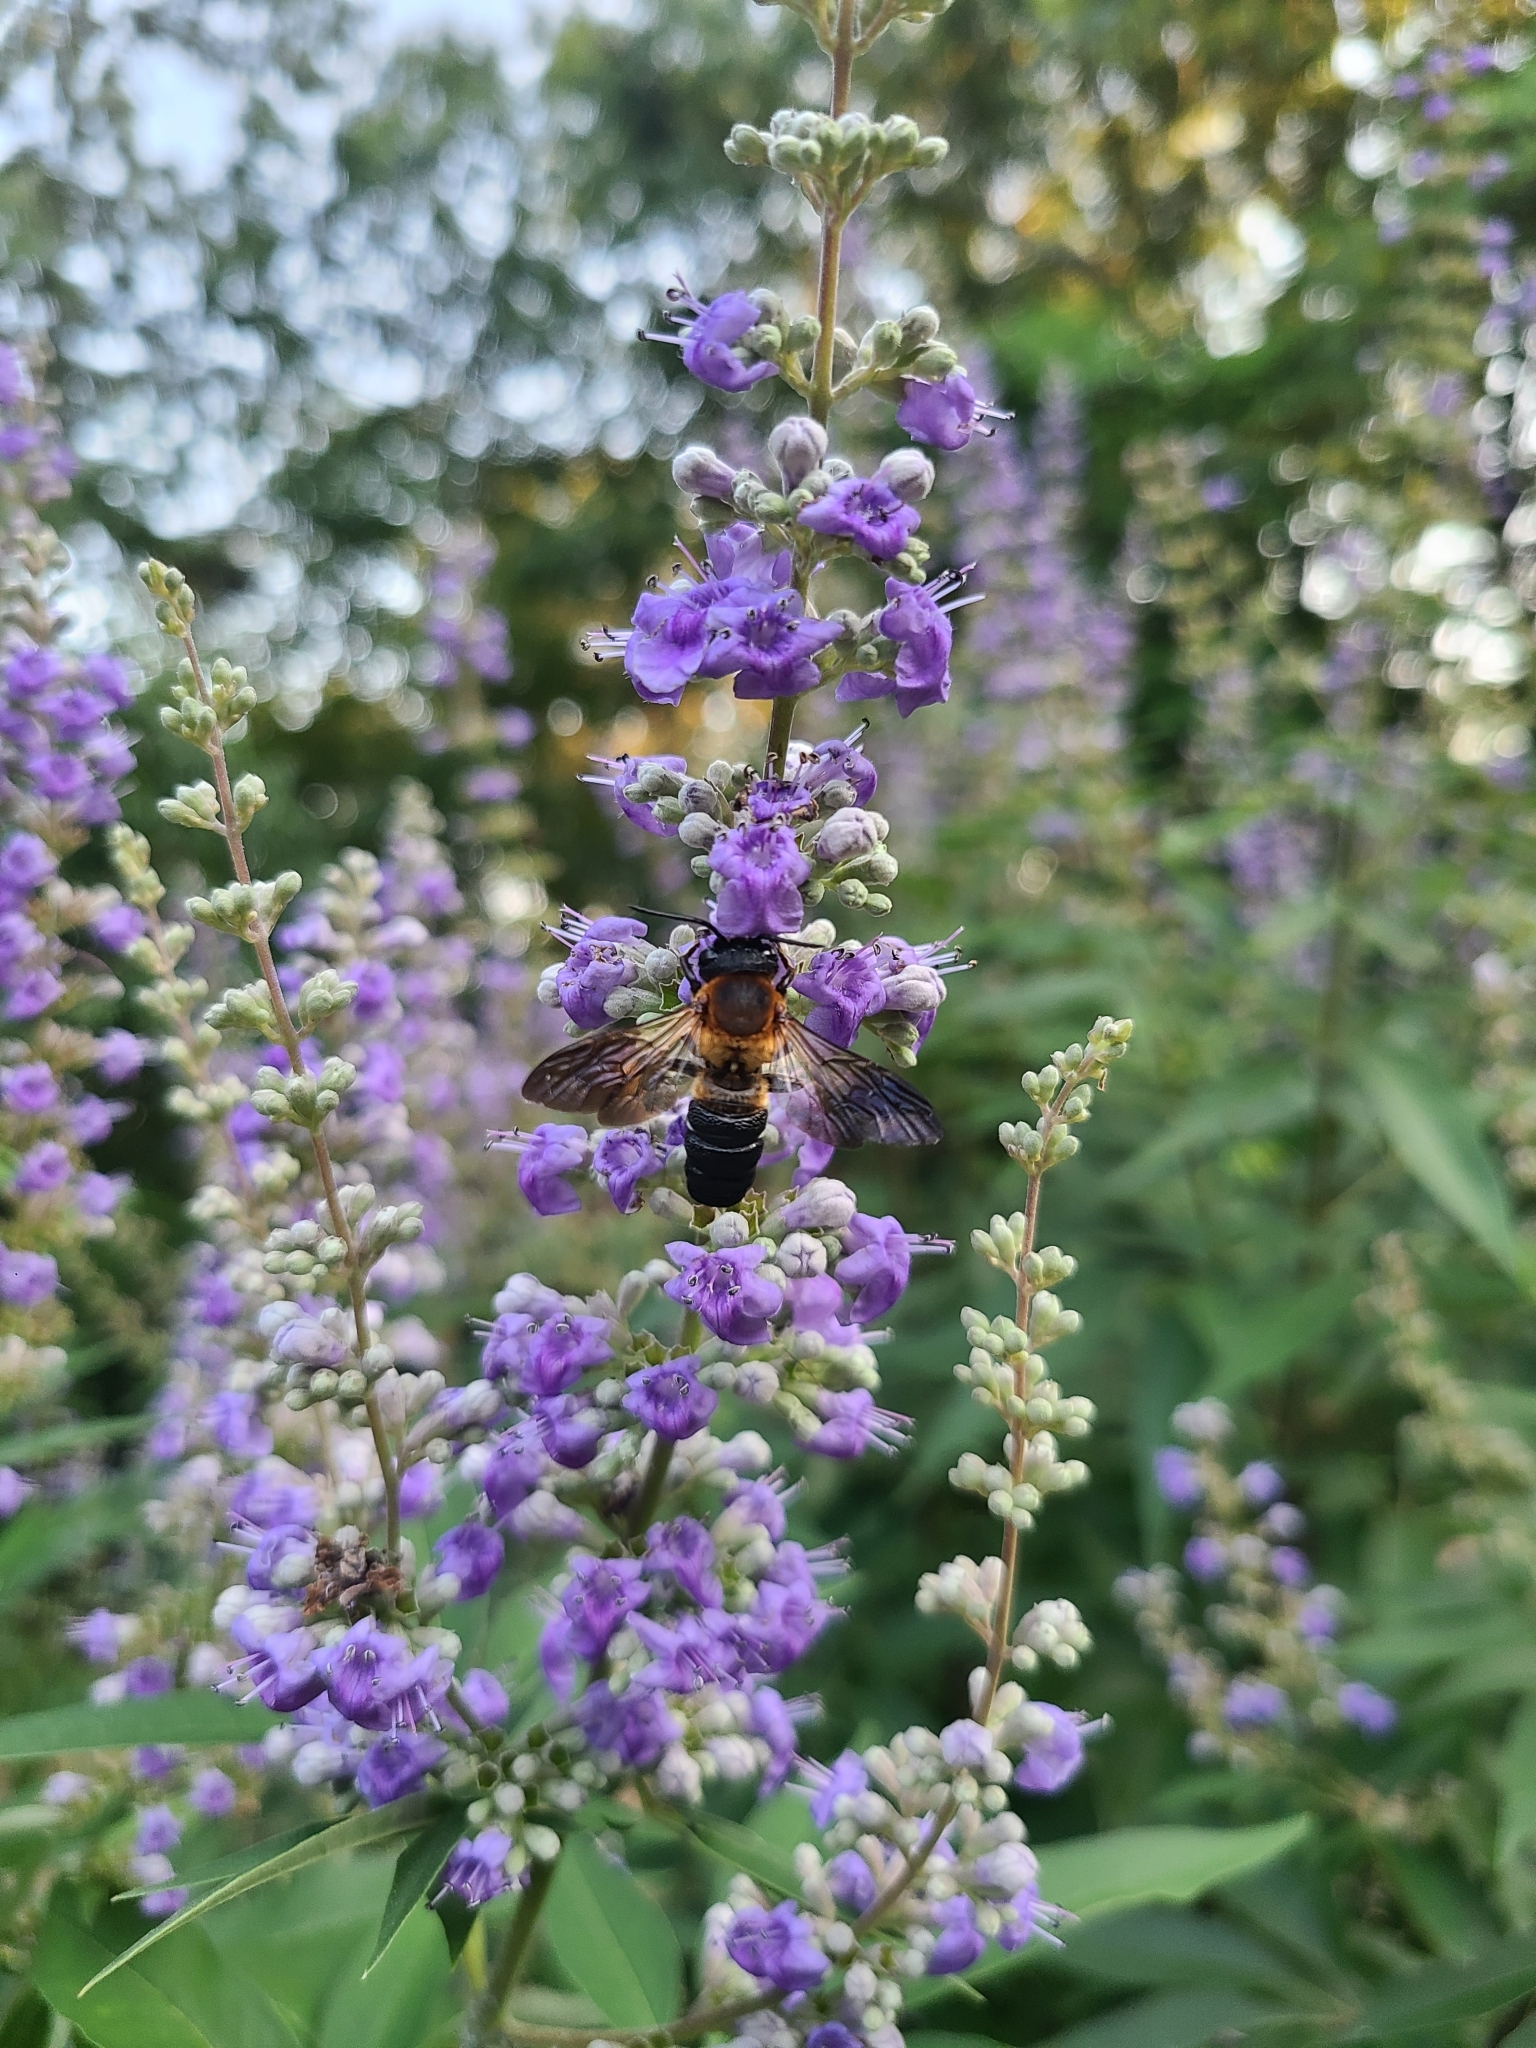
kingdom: Animalia
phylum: Arthropoda
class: Insecta
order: Hymenoptera
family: Megachilidae
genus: Megachile
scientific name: Megachile sculpturalis
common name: Sculptured resin bee
